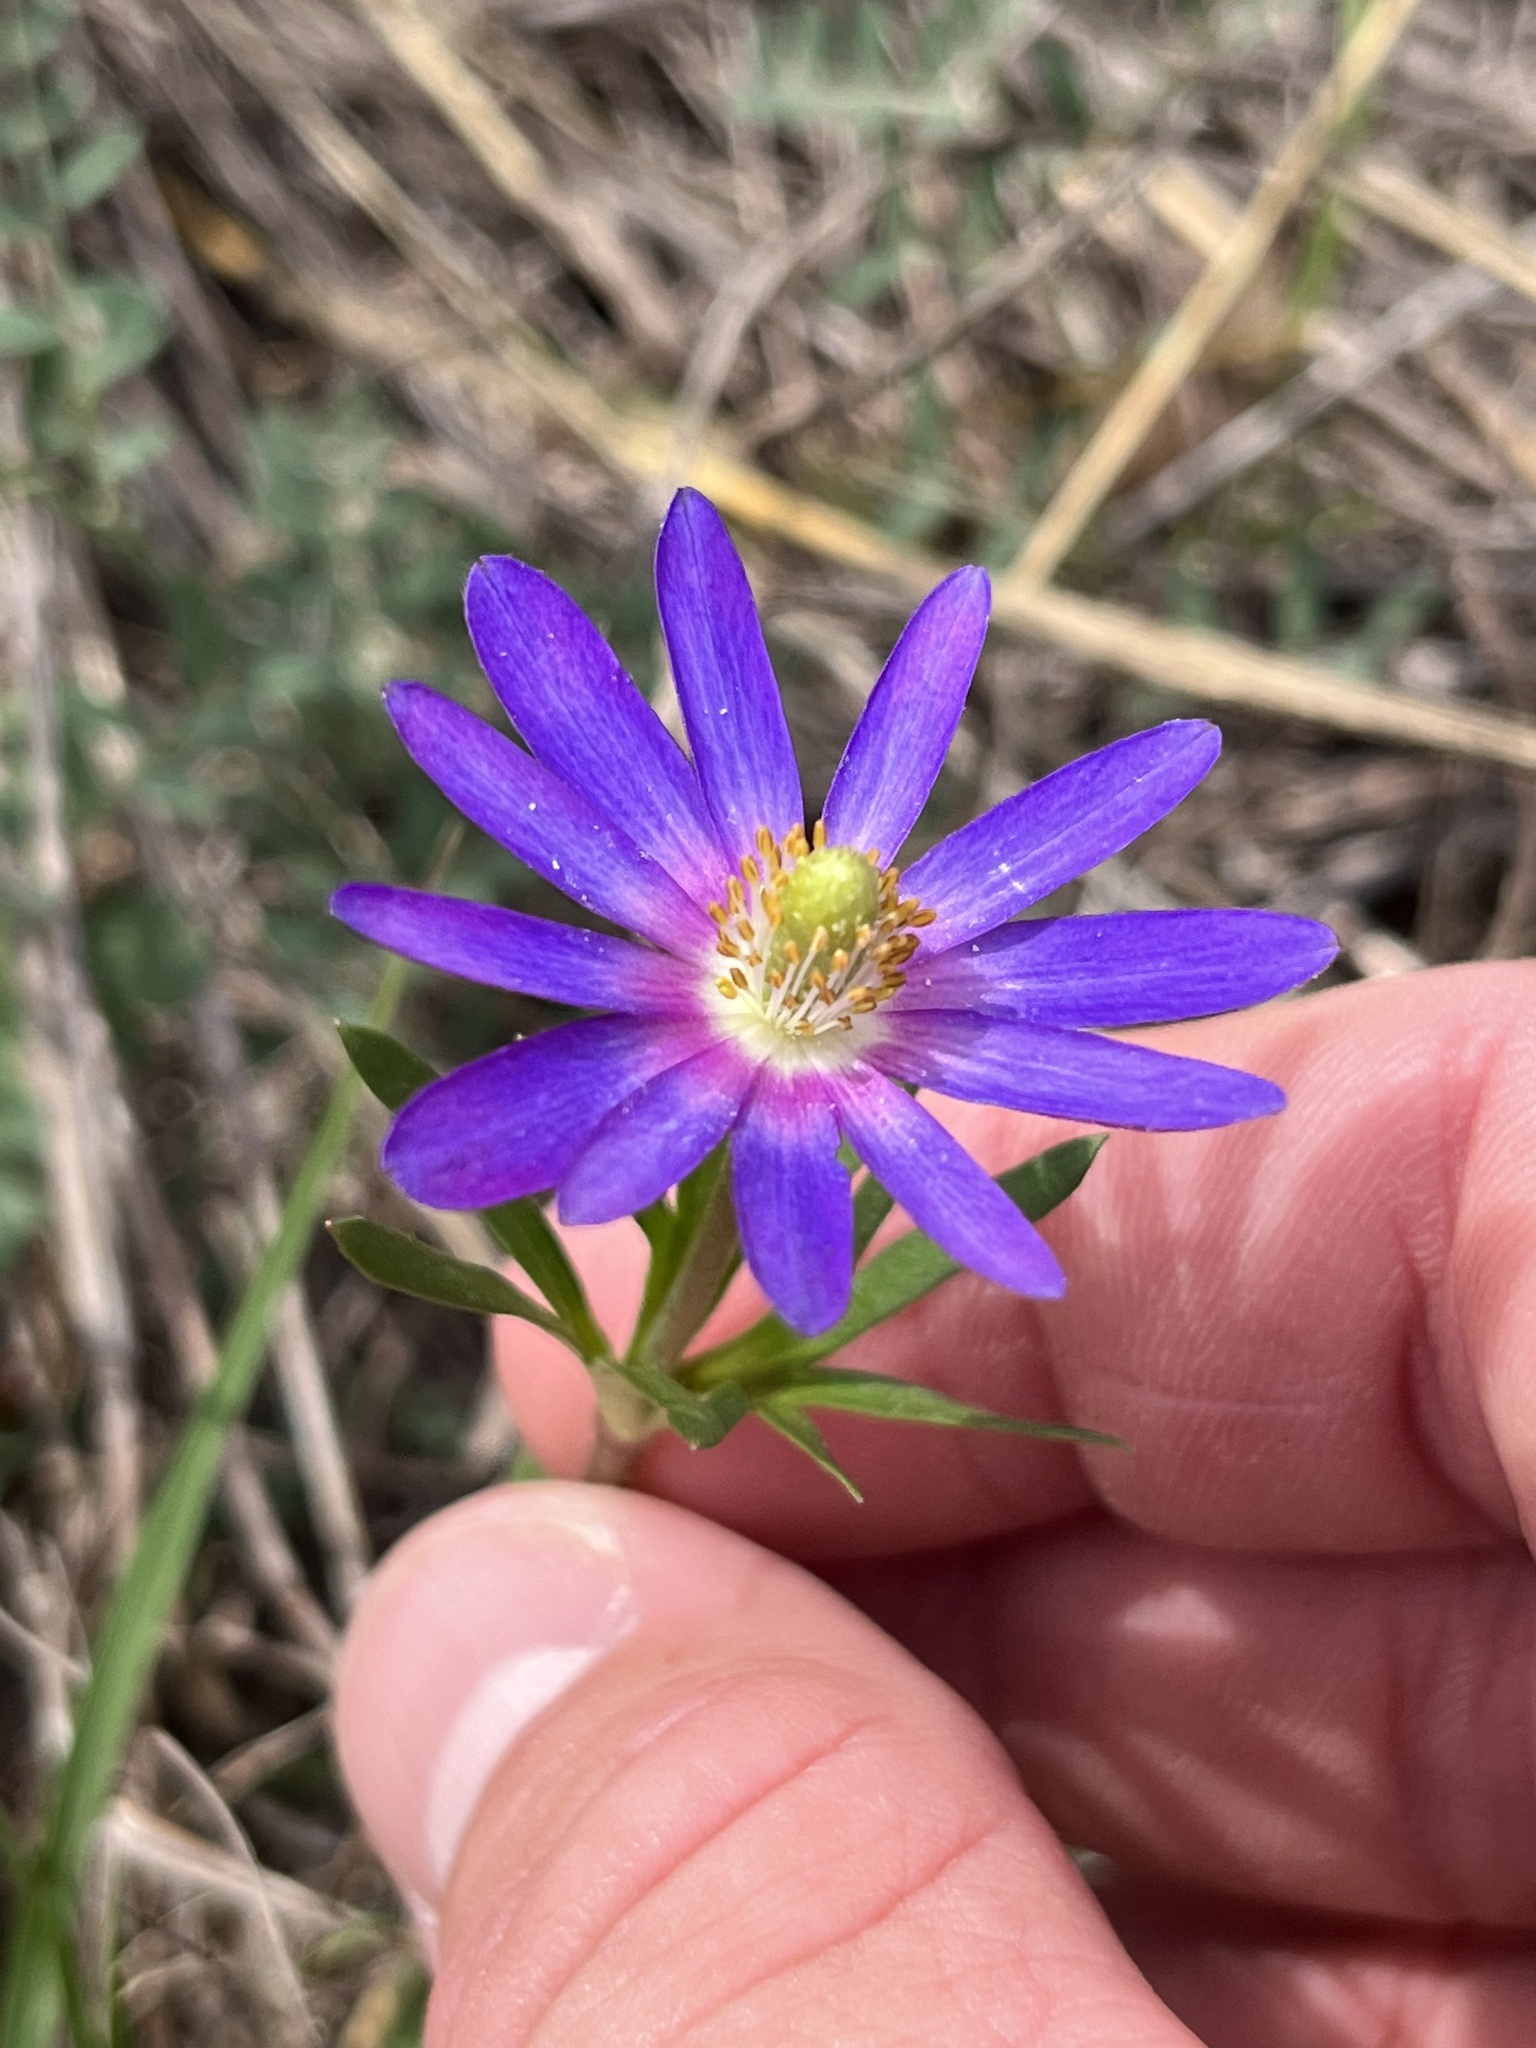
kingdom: Plantae
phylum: Tracheophyta
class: Magnoliopsida
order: Ranunculales
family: Ranunculaceae
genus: Anemone
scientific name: Anemone berlandieri
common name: Ten-petal anemone
